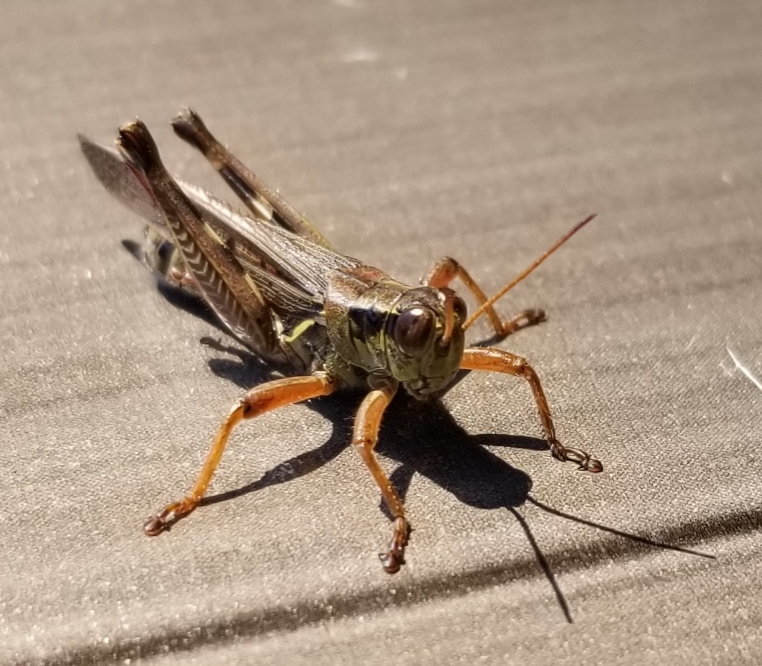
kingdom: Animalia
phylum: Arthropoda
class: Insecta
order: Orthoptera
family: Acrididae
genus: Melanoplus
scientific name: Melanoplus femurrubrum
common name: Red-legged grasshopper
